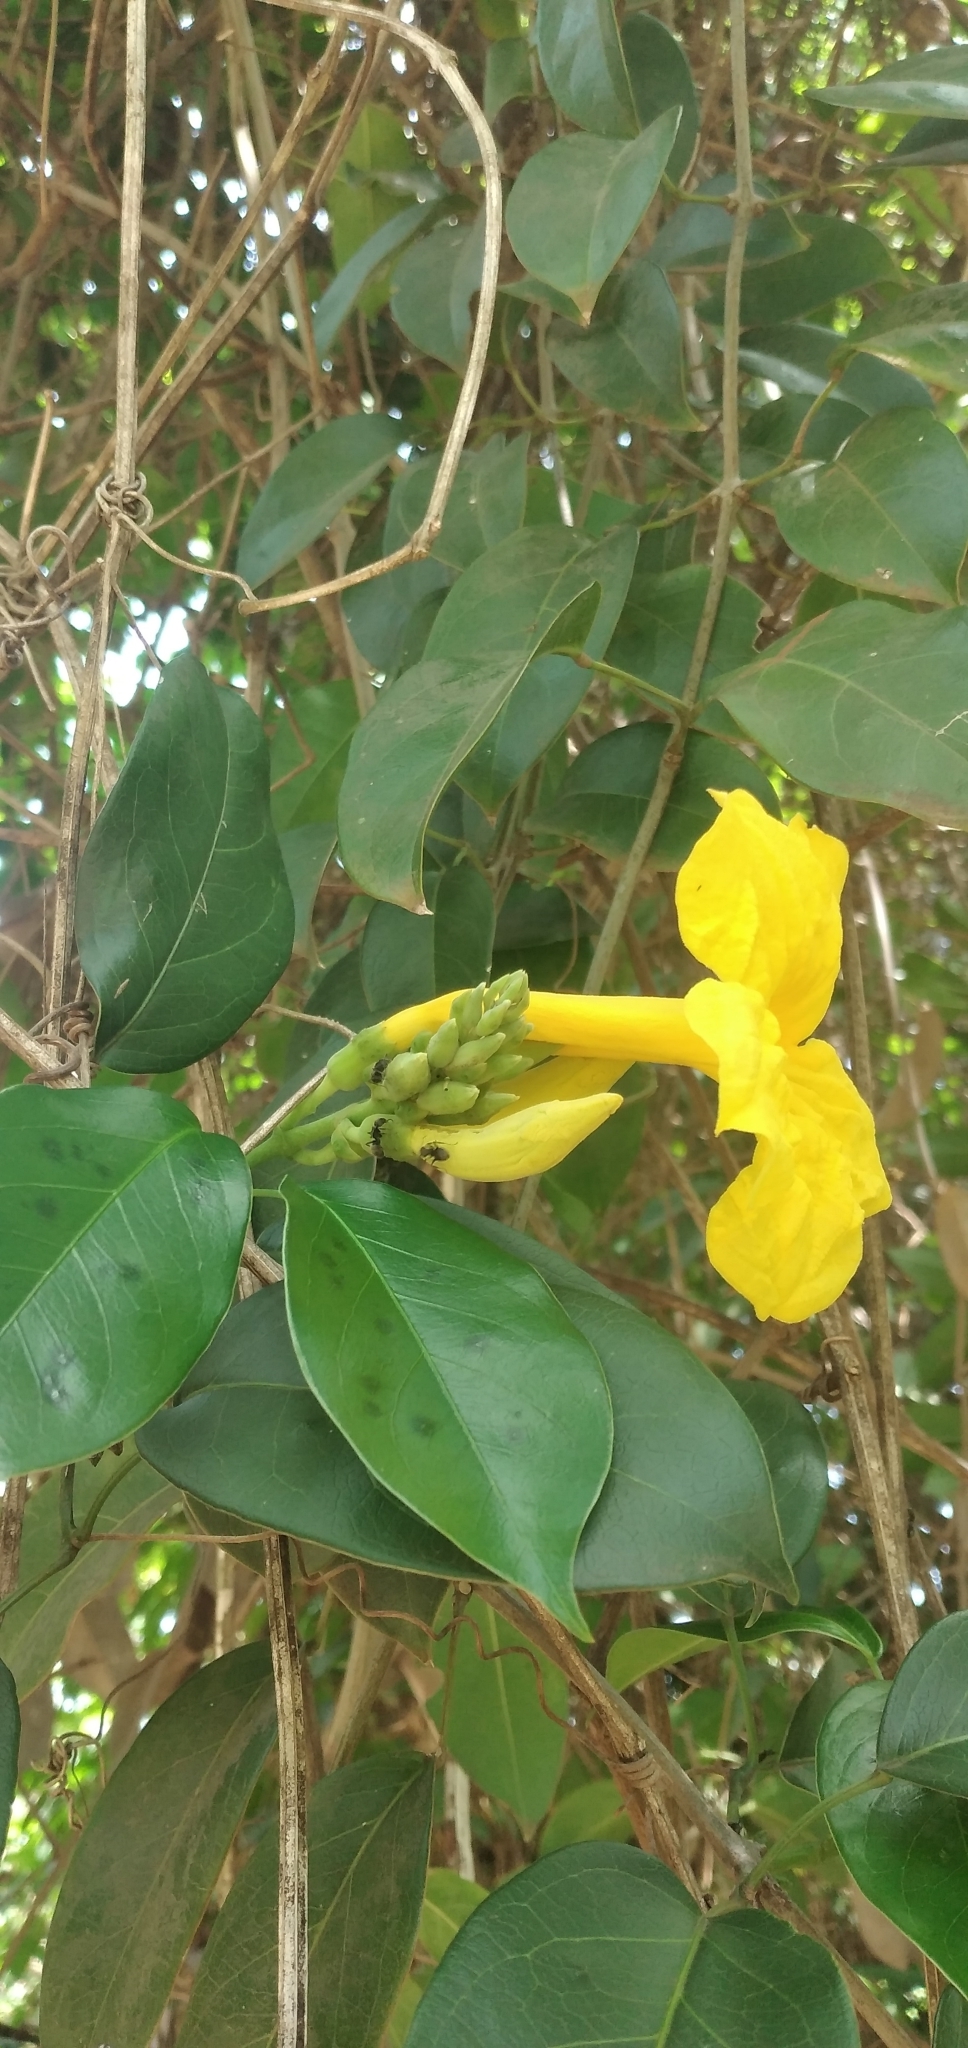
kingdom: Plantae
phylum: Tracheophyta
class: Magnoliopsida
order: Lamiales
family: Bignoniaceae
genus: Adenocalymma
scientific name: Adenocalymma marginatum
